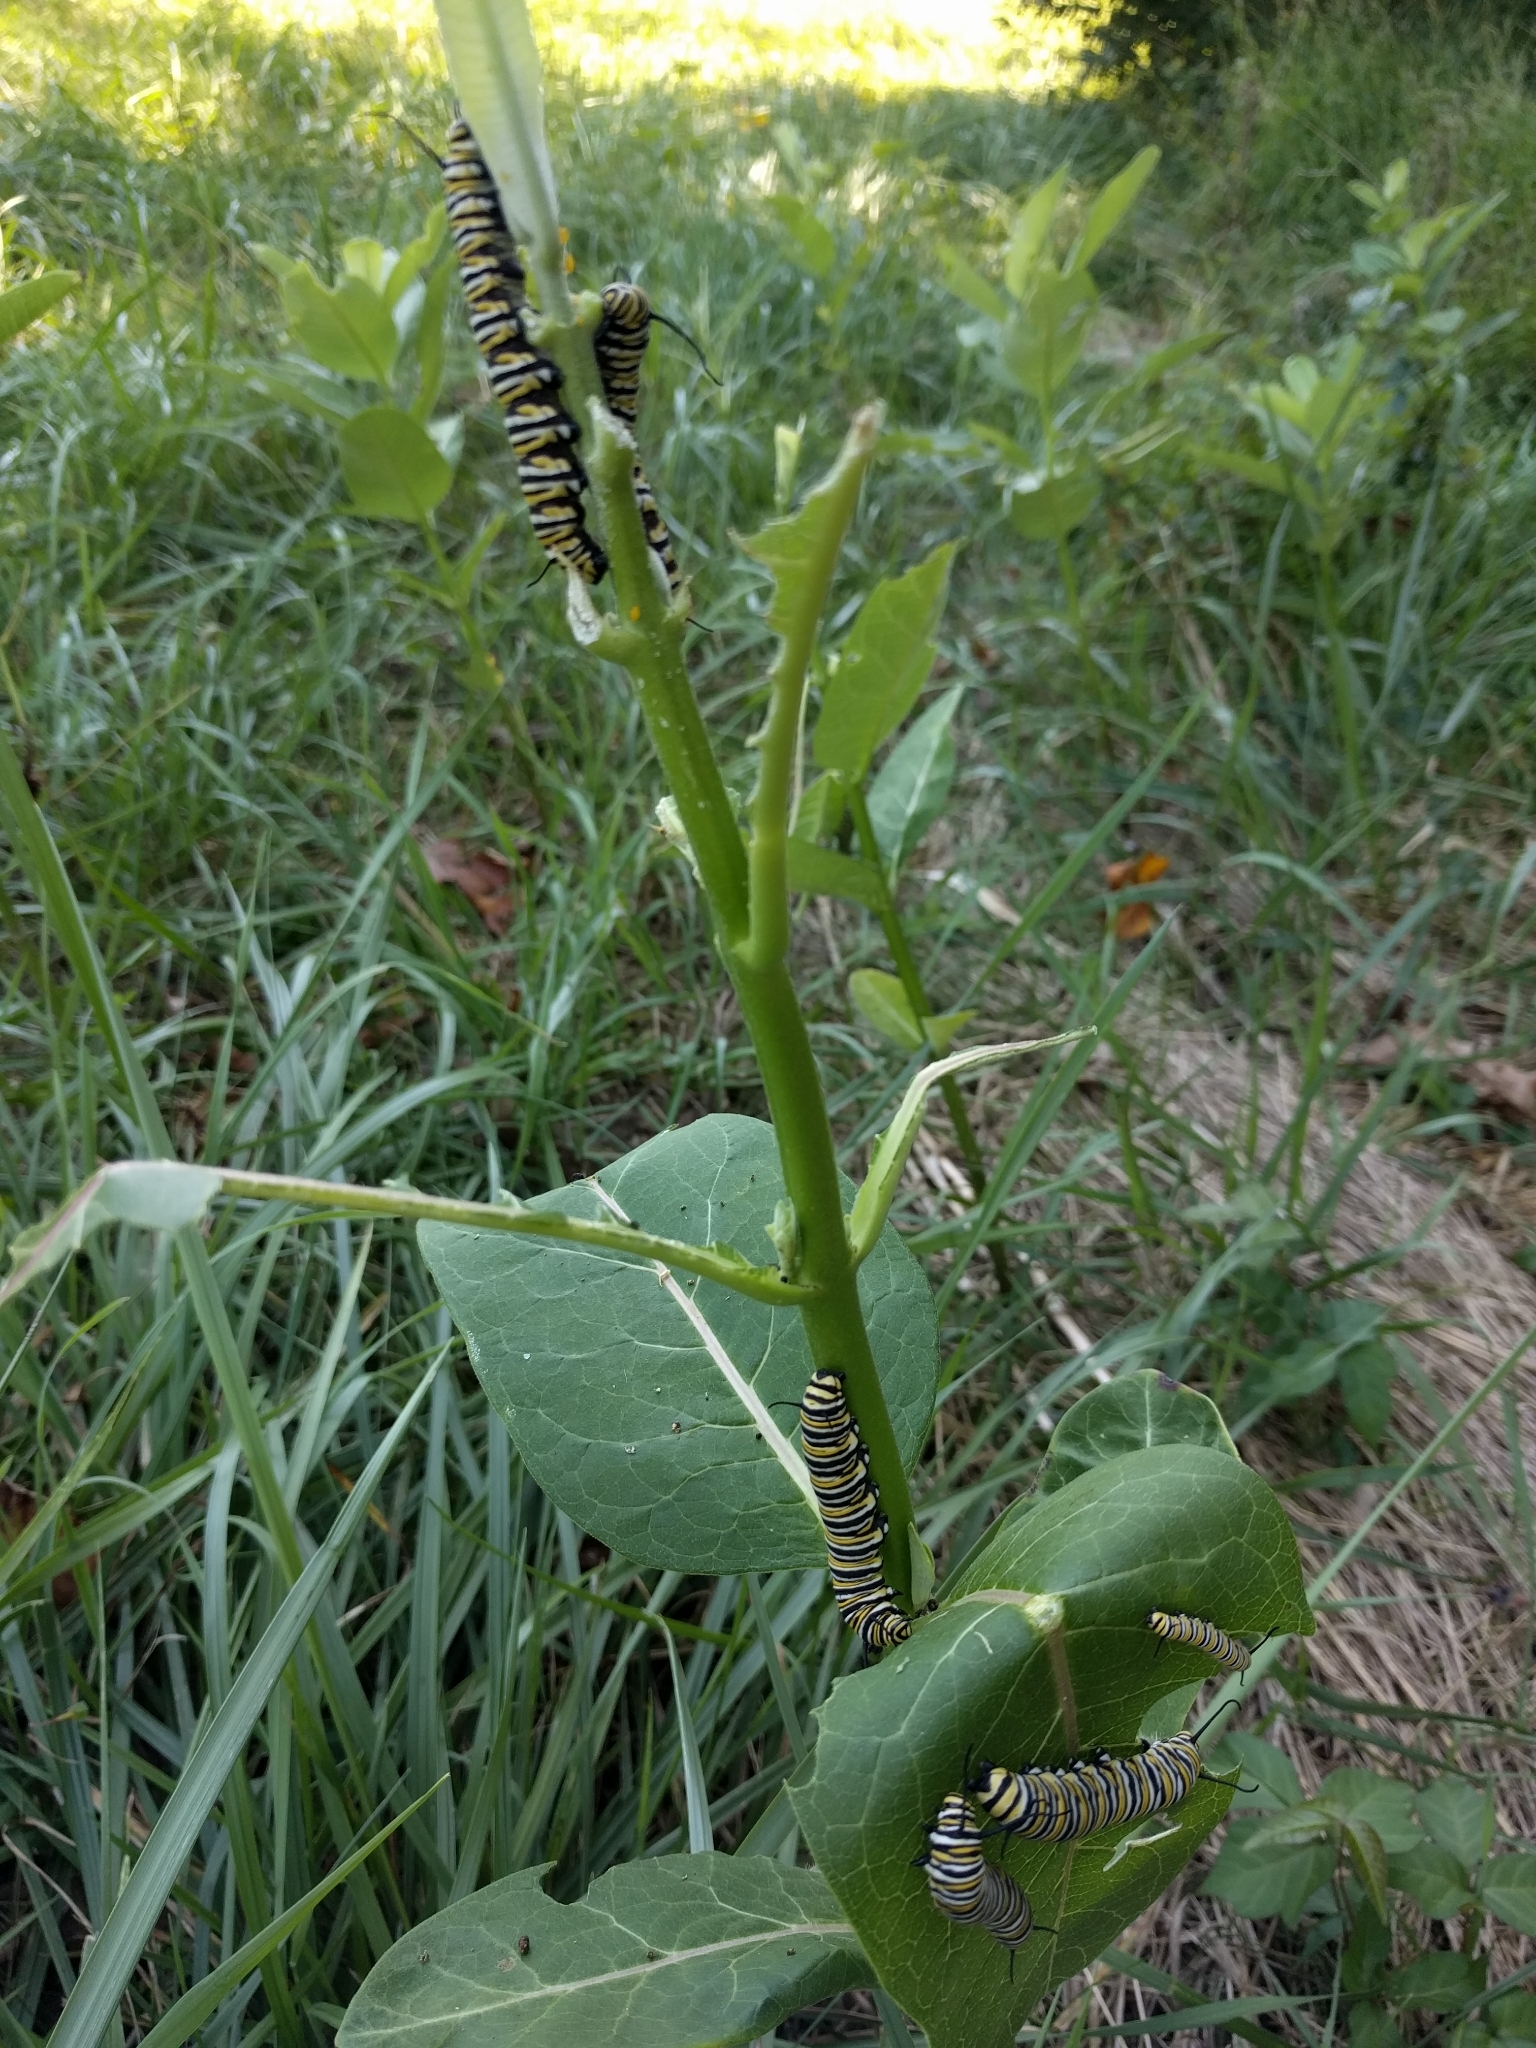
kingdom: Animalia
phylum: Arthropoda
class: Insecta
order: Lepidoptera
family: Nymphalidae
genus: Danaus
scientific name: Danaus plexippus
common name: Monarch
